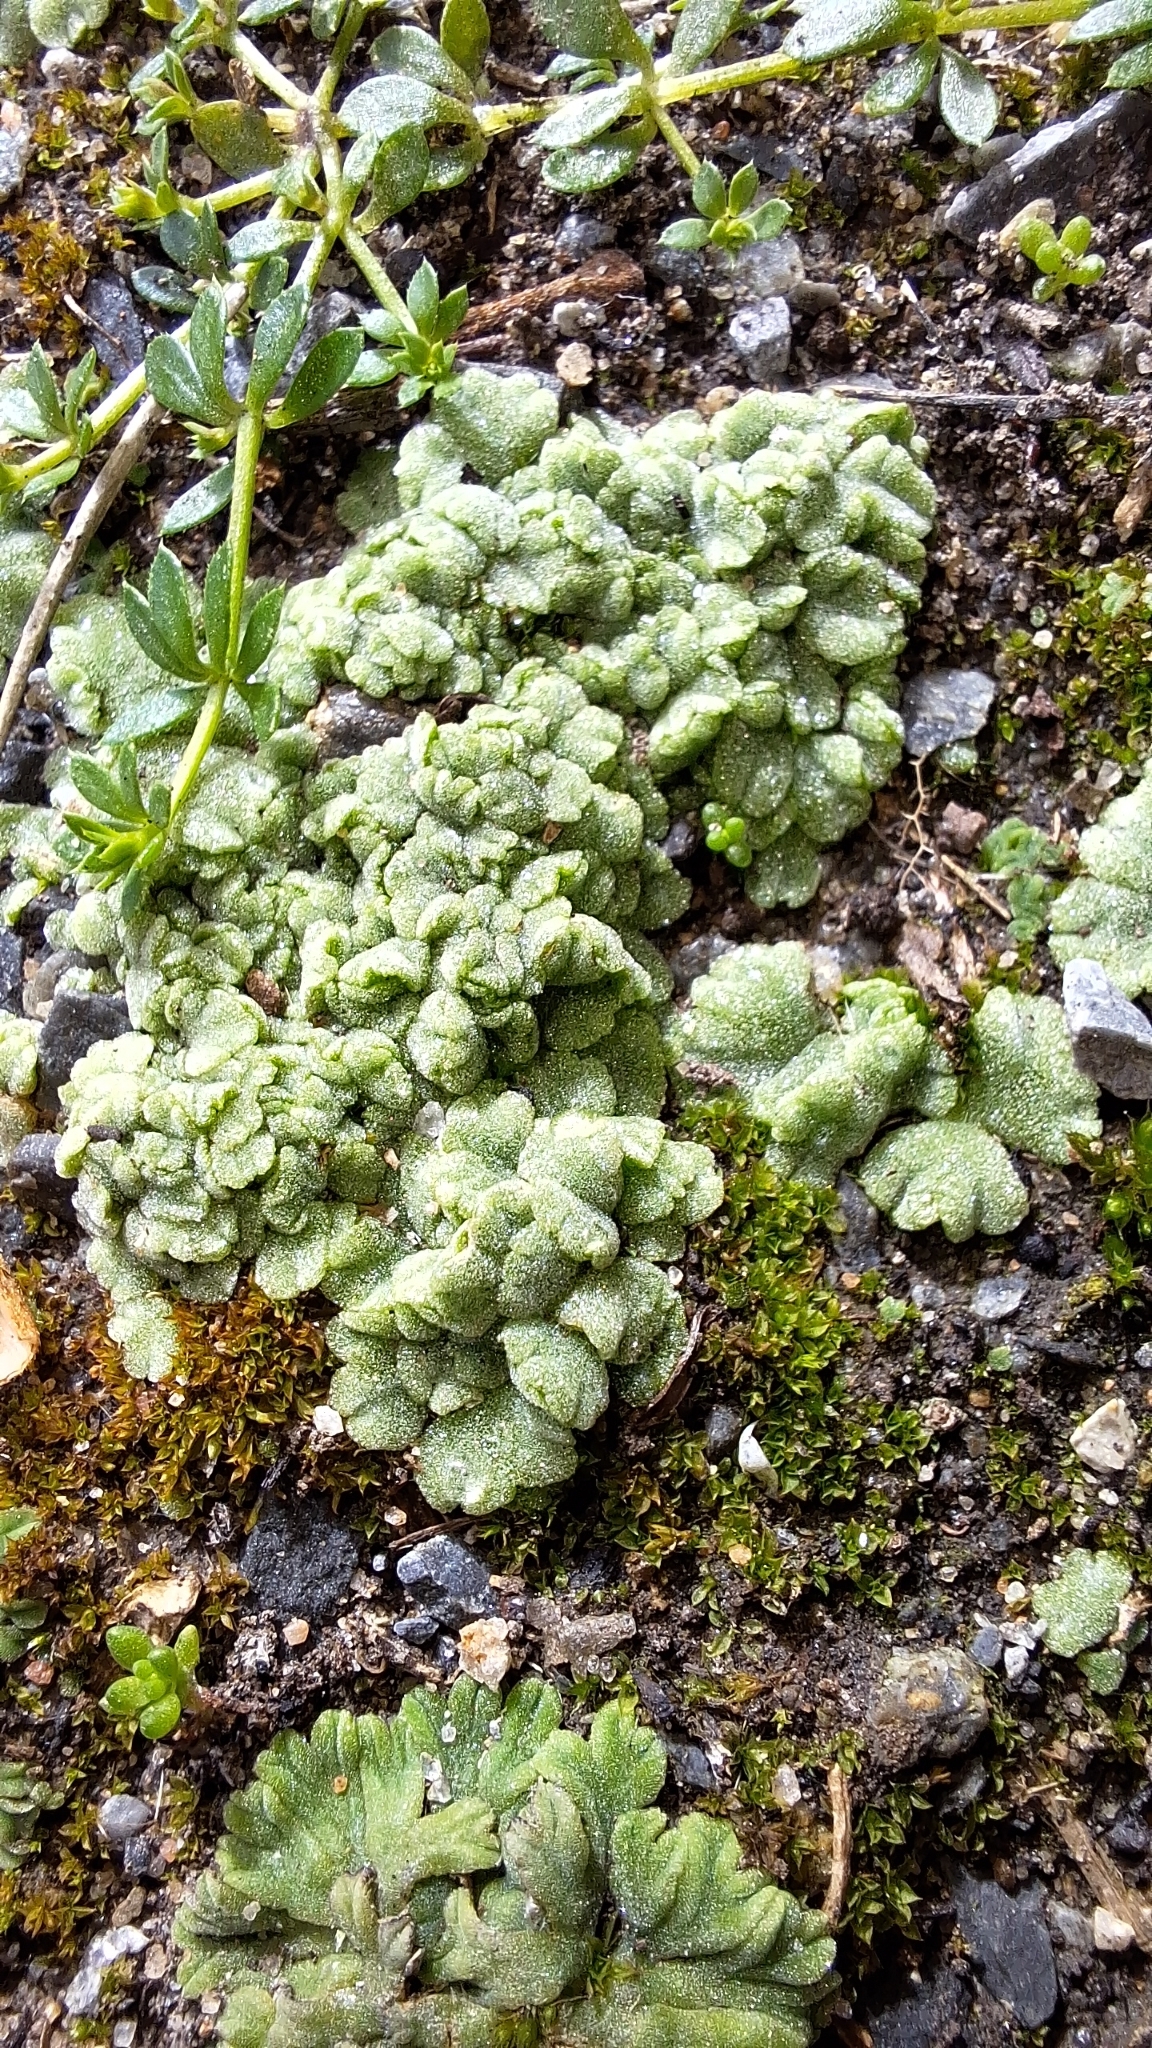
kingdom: Plantae
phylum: Marchantiophyta
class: Marchantiopsida
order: Marchantiales
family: Ricciaceae
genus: Riccia
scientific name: Riccia crystallina
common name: Blue crystalwort
